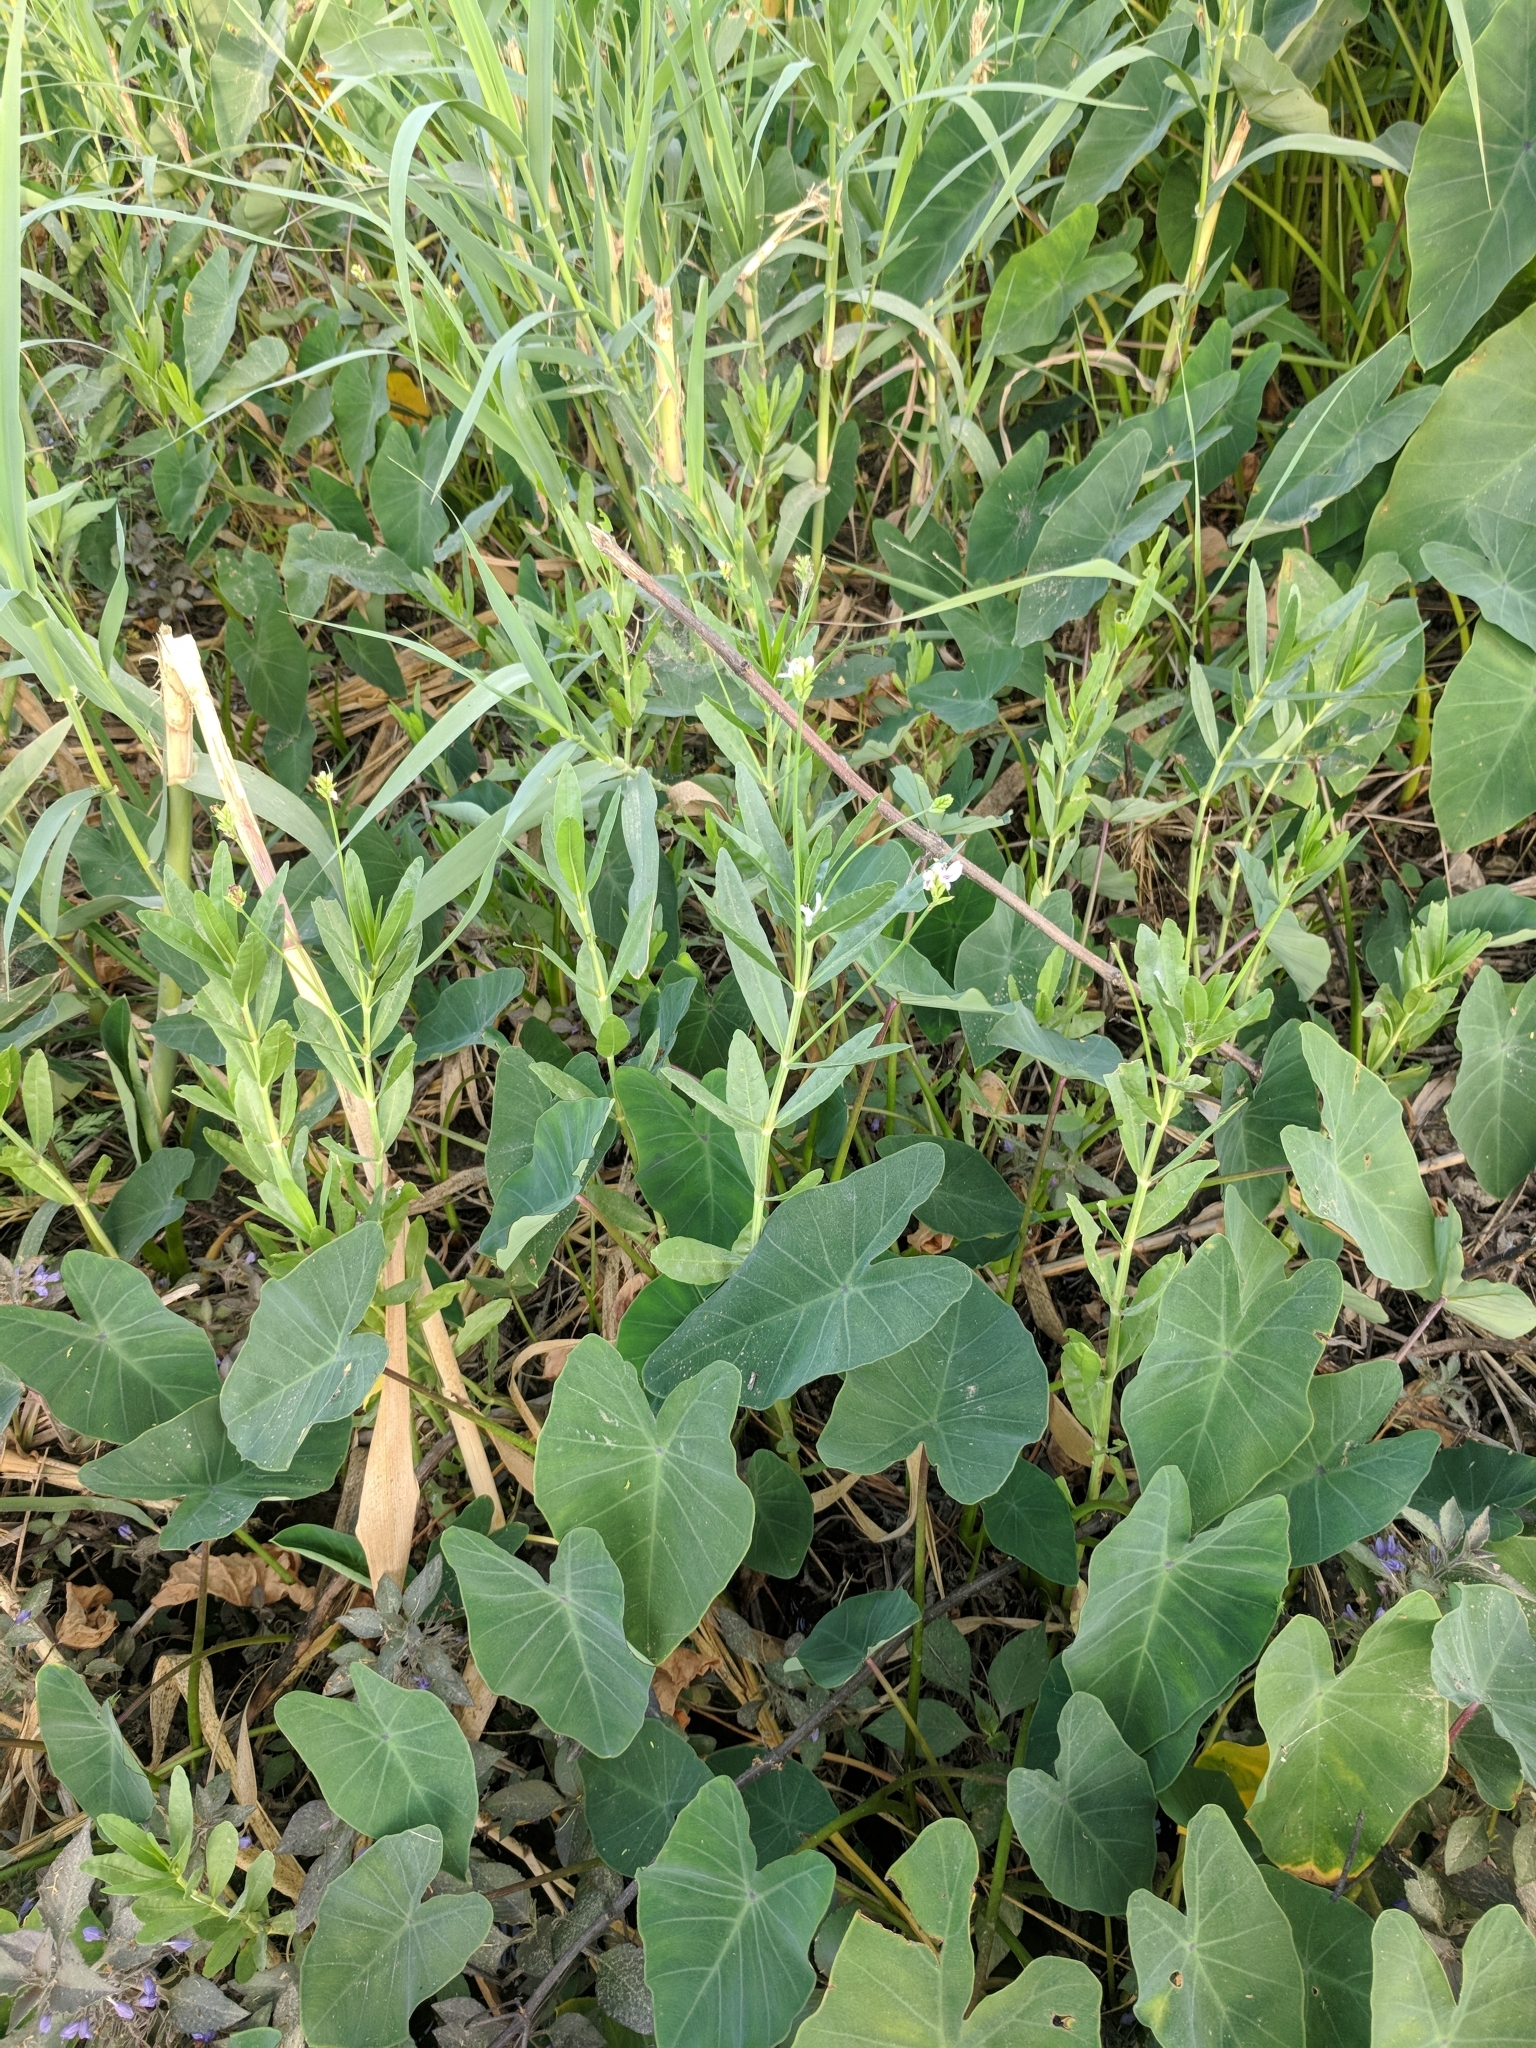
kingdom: Plantae
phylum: Tracheophyta
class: Magnoliopsida
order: Lamiales
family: Acanthaceae
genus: Dianthera
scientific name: Dianthera americana
